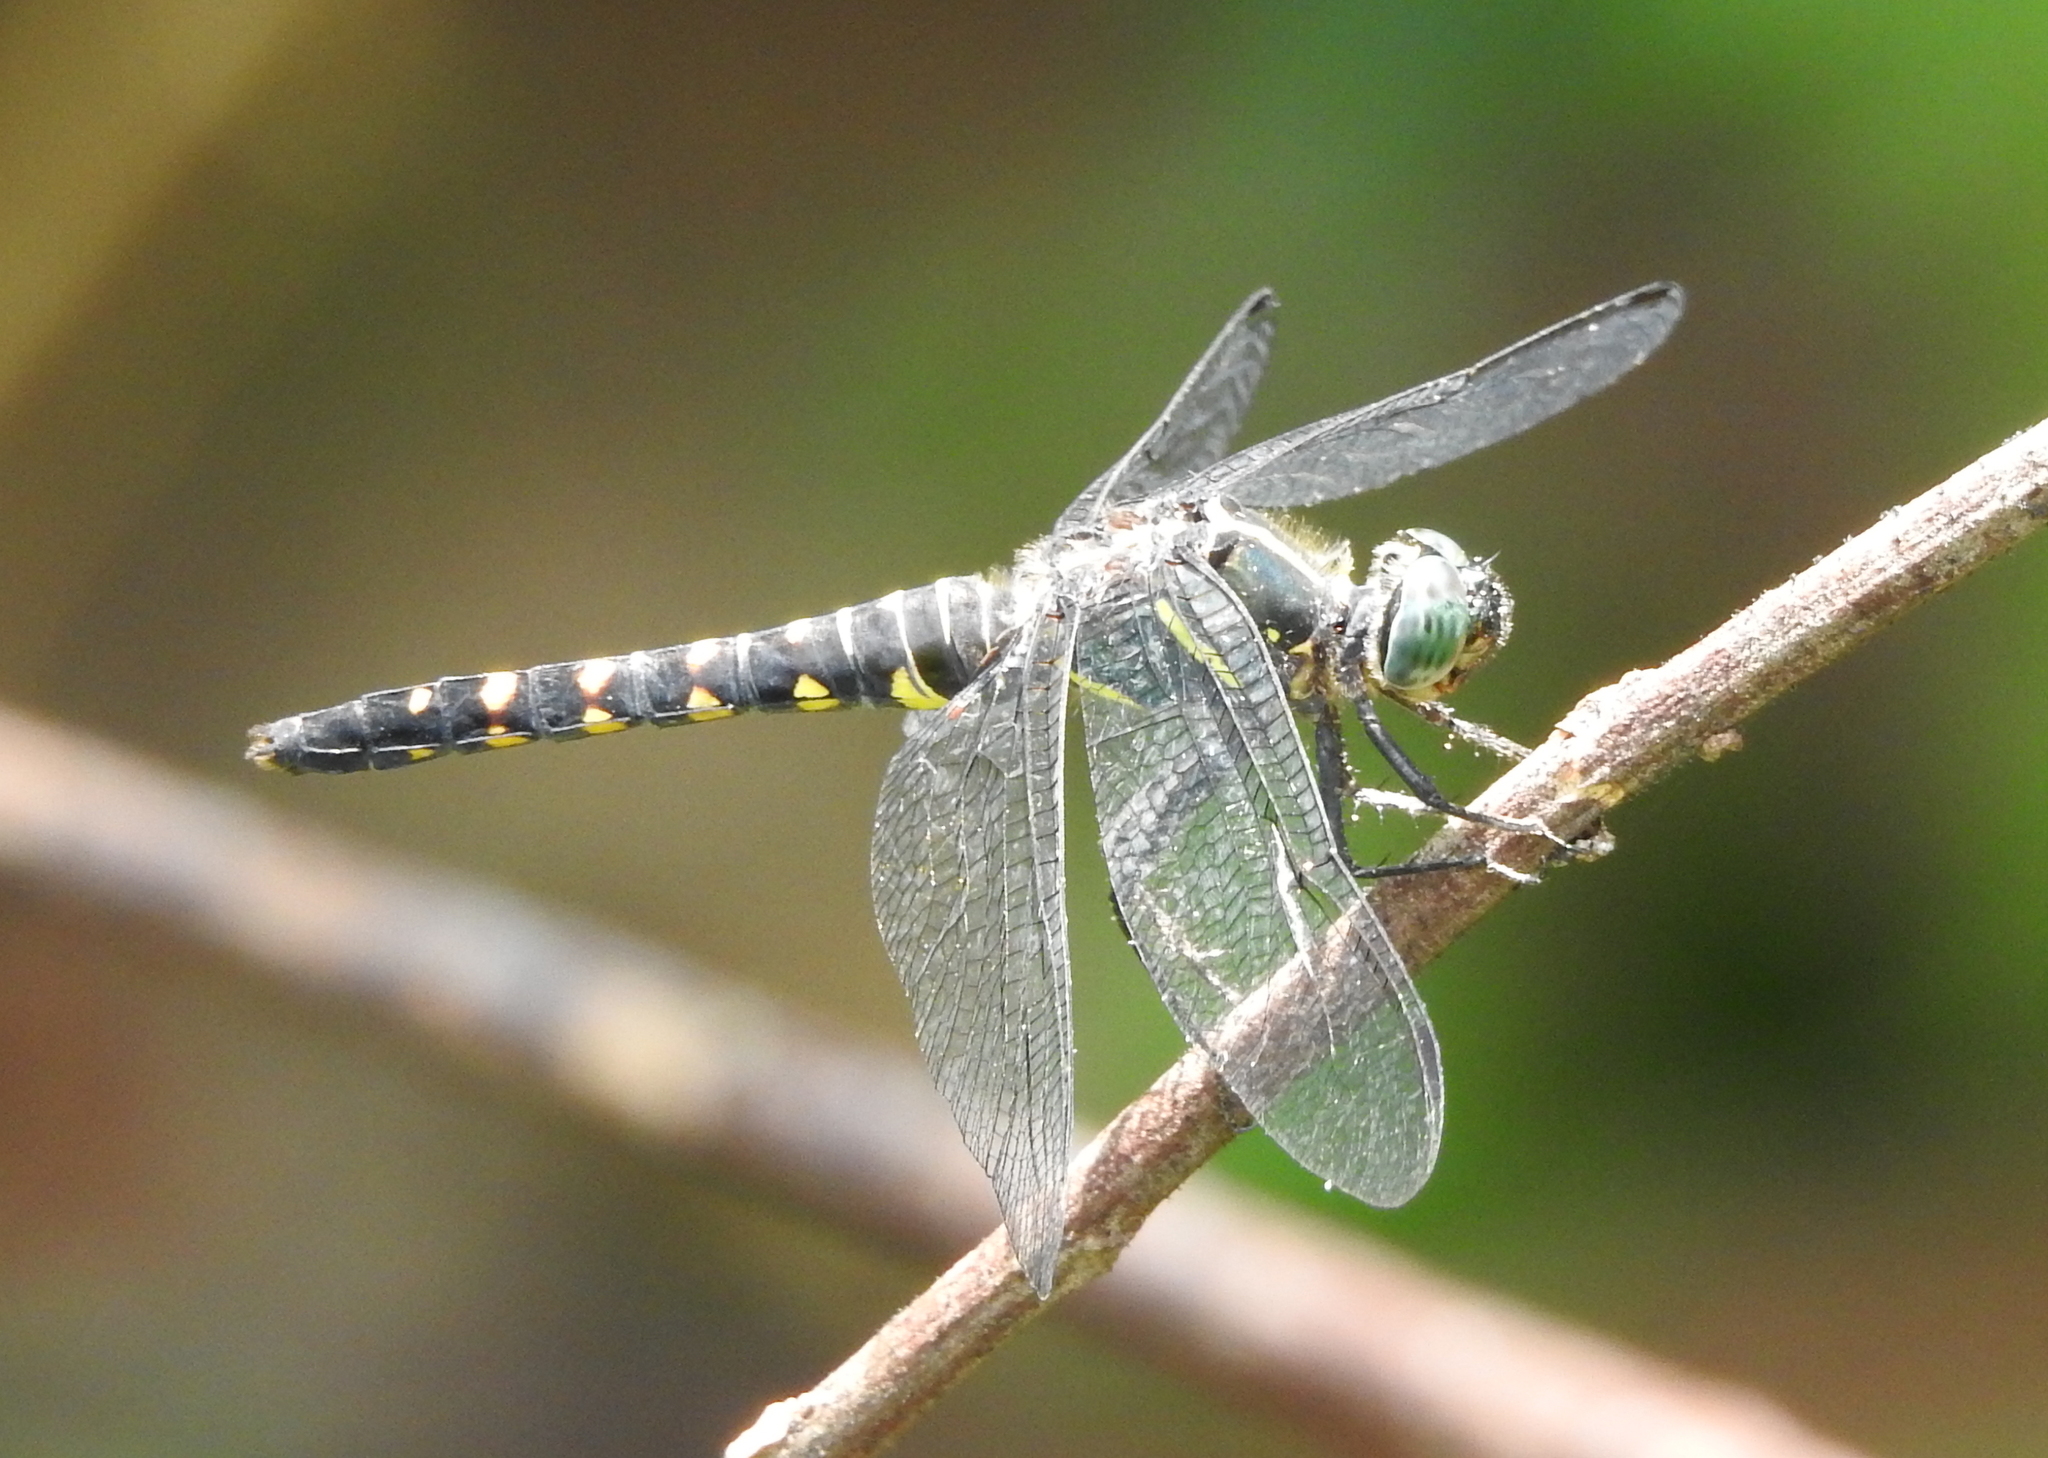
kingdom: Animalia
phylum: Arthropoda
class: Insecta
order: Odonata
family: Libellulidae
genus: Onychothemis
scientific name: Onychothemis testacea
